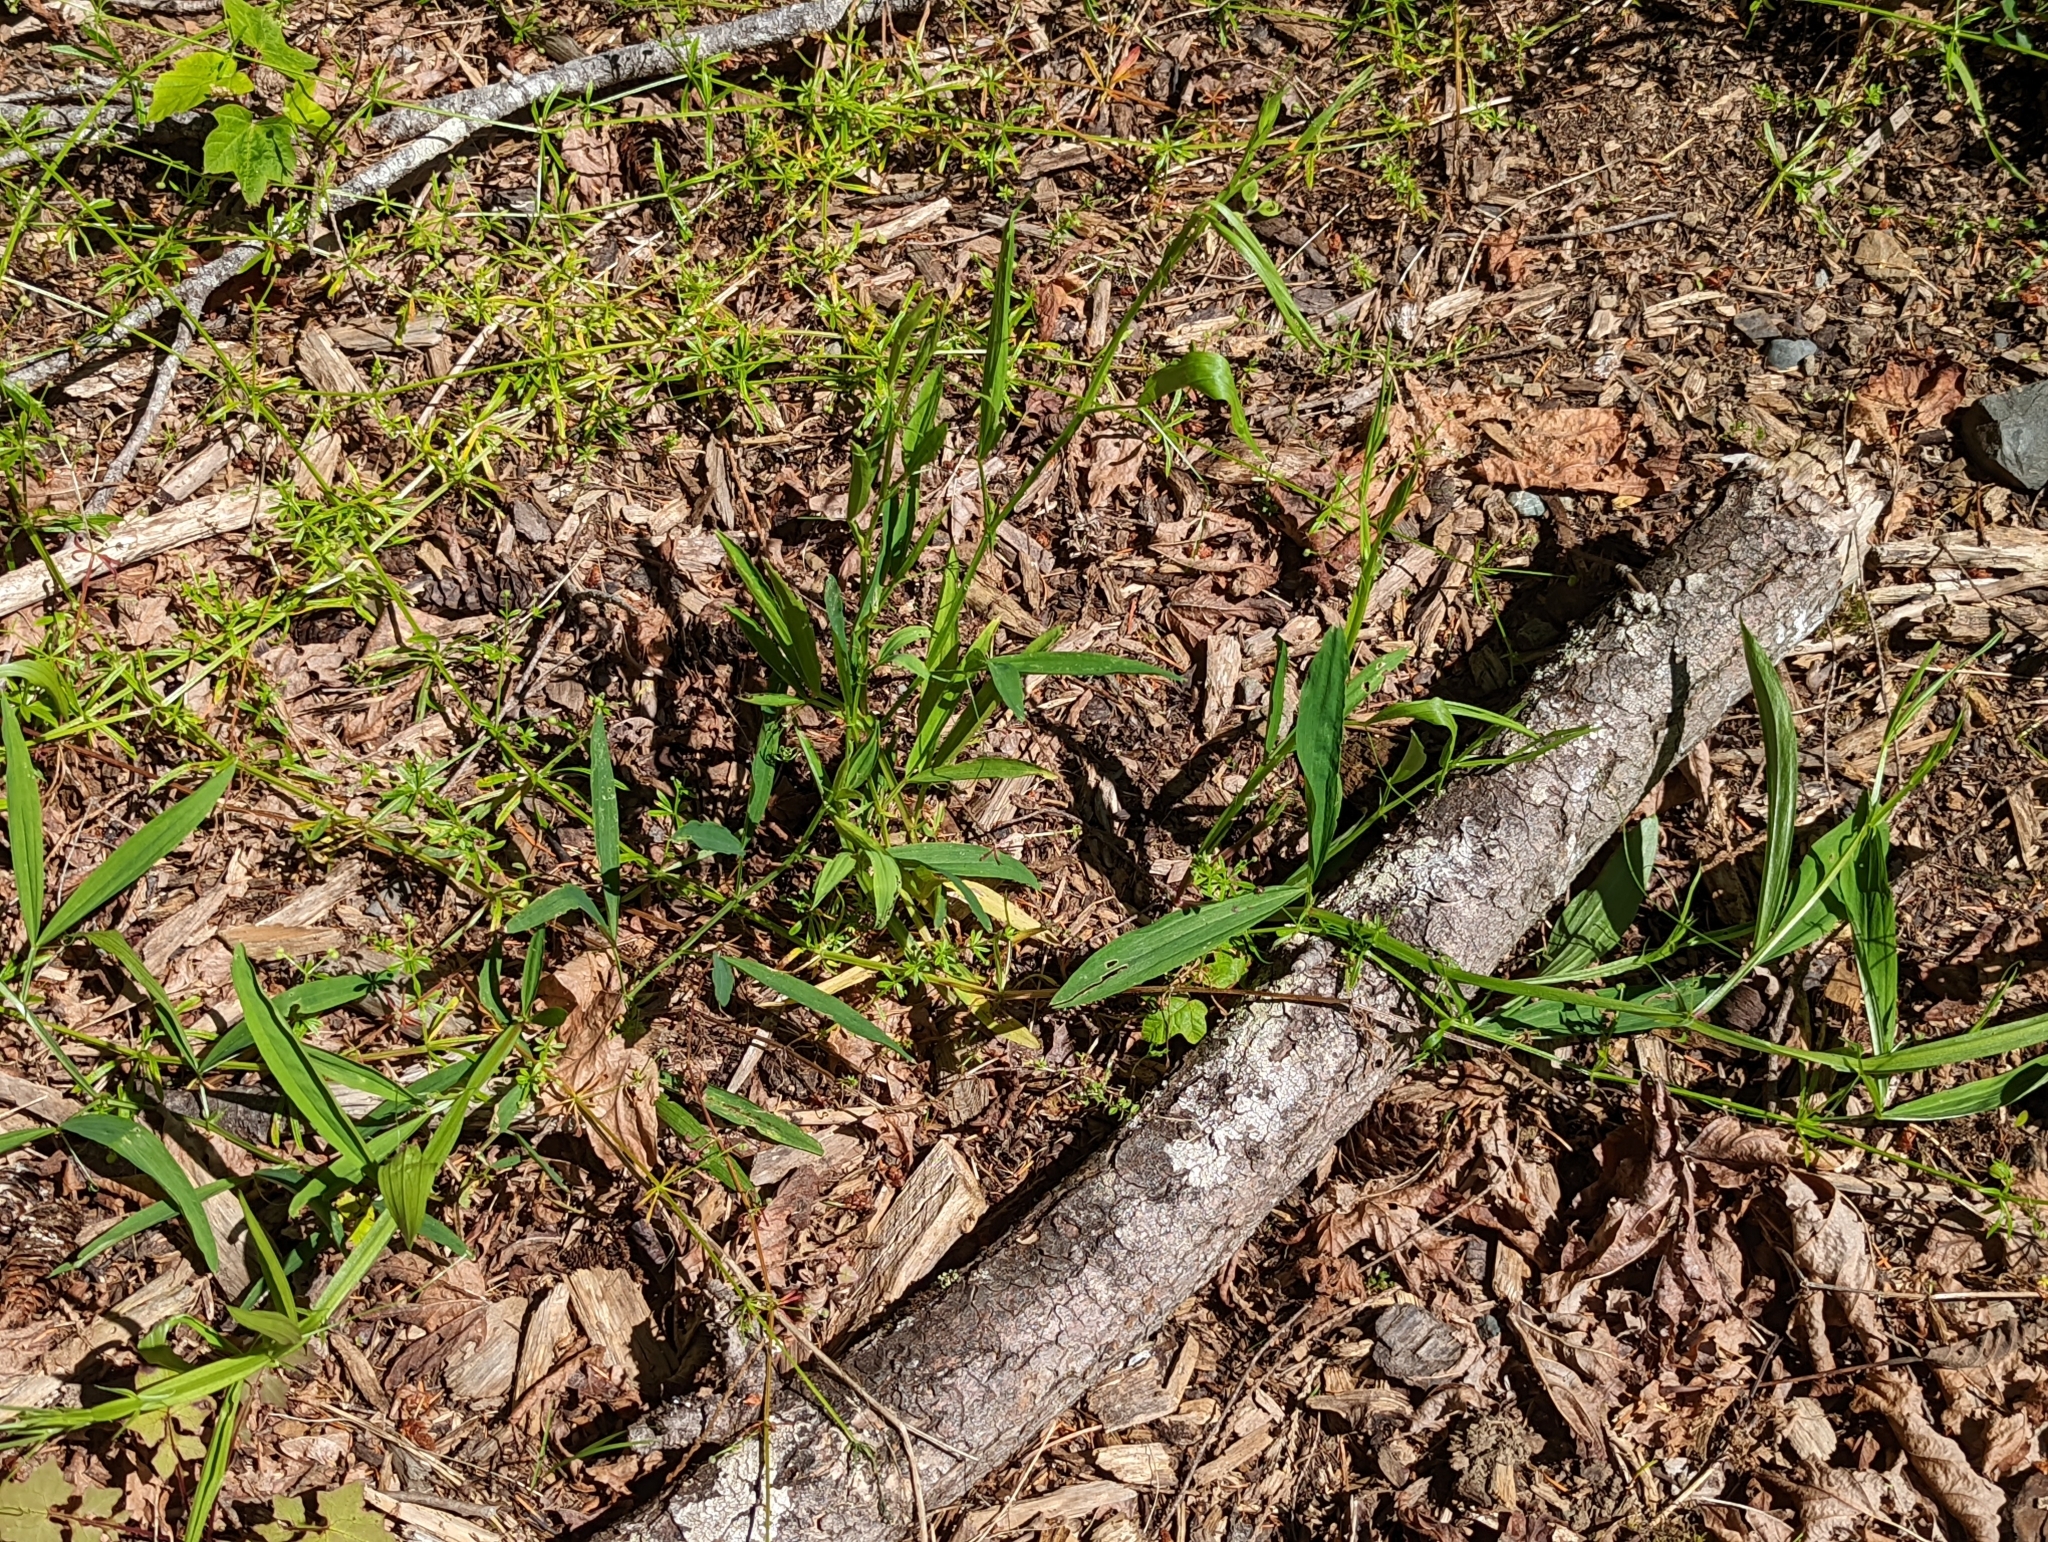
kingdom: Plantae
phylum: Tracheophyta
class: Magnoliopsida
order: Fabales
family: Fabaceae
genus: Lathyrus
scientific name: Lathyrus sylvestris
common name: Flat pea
